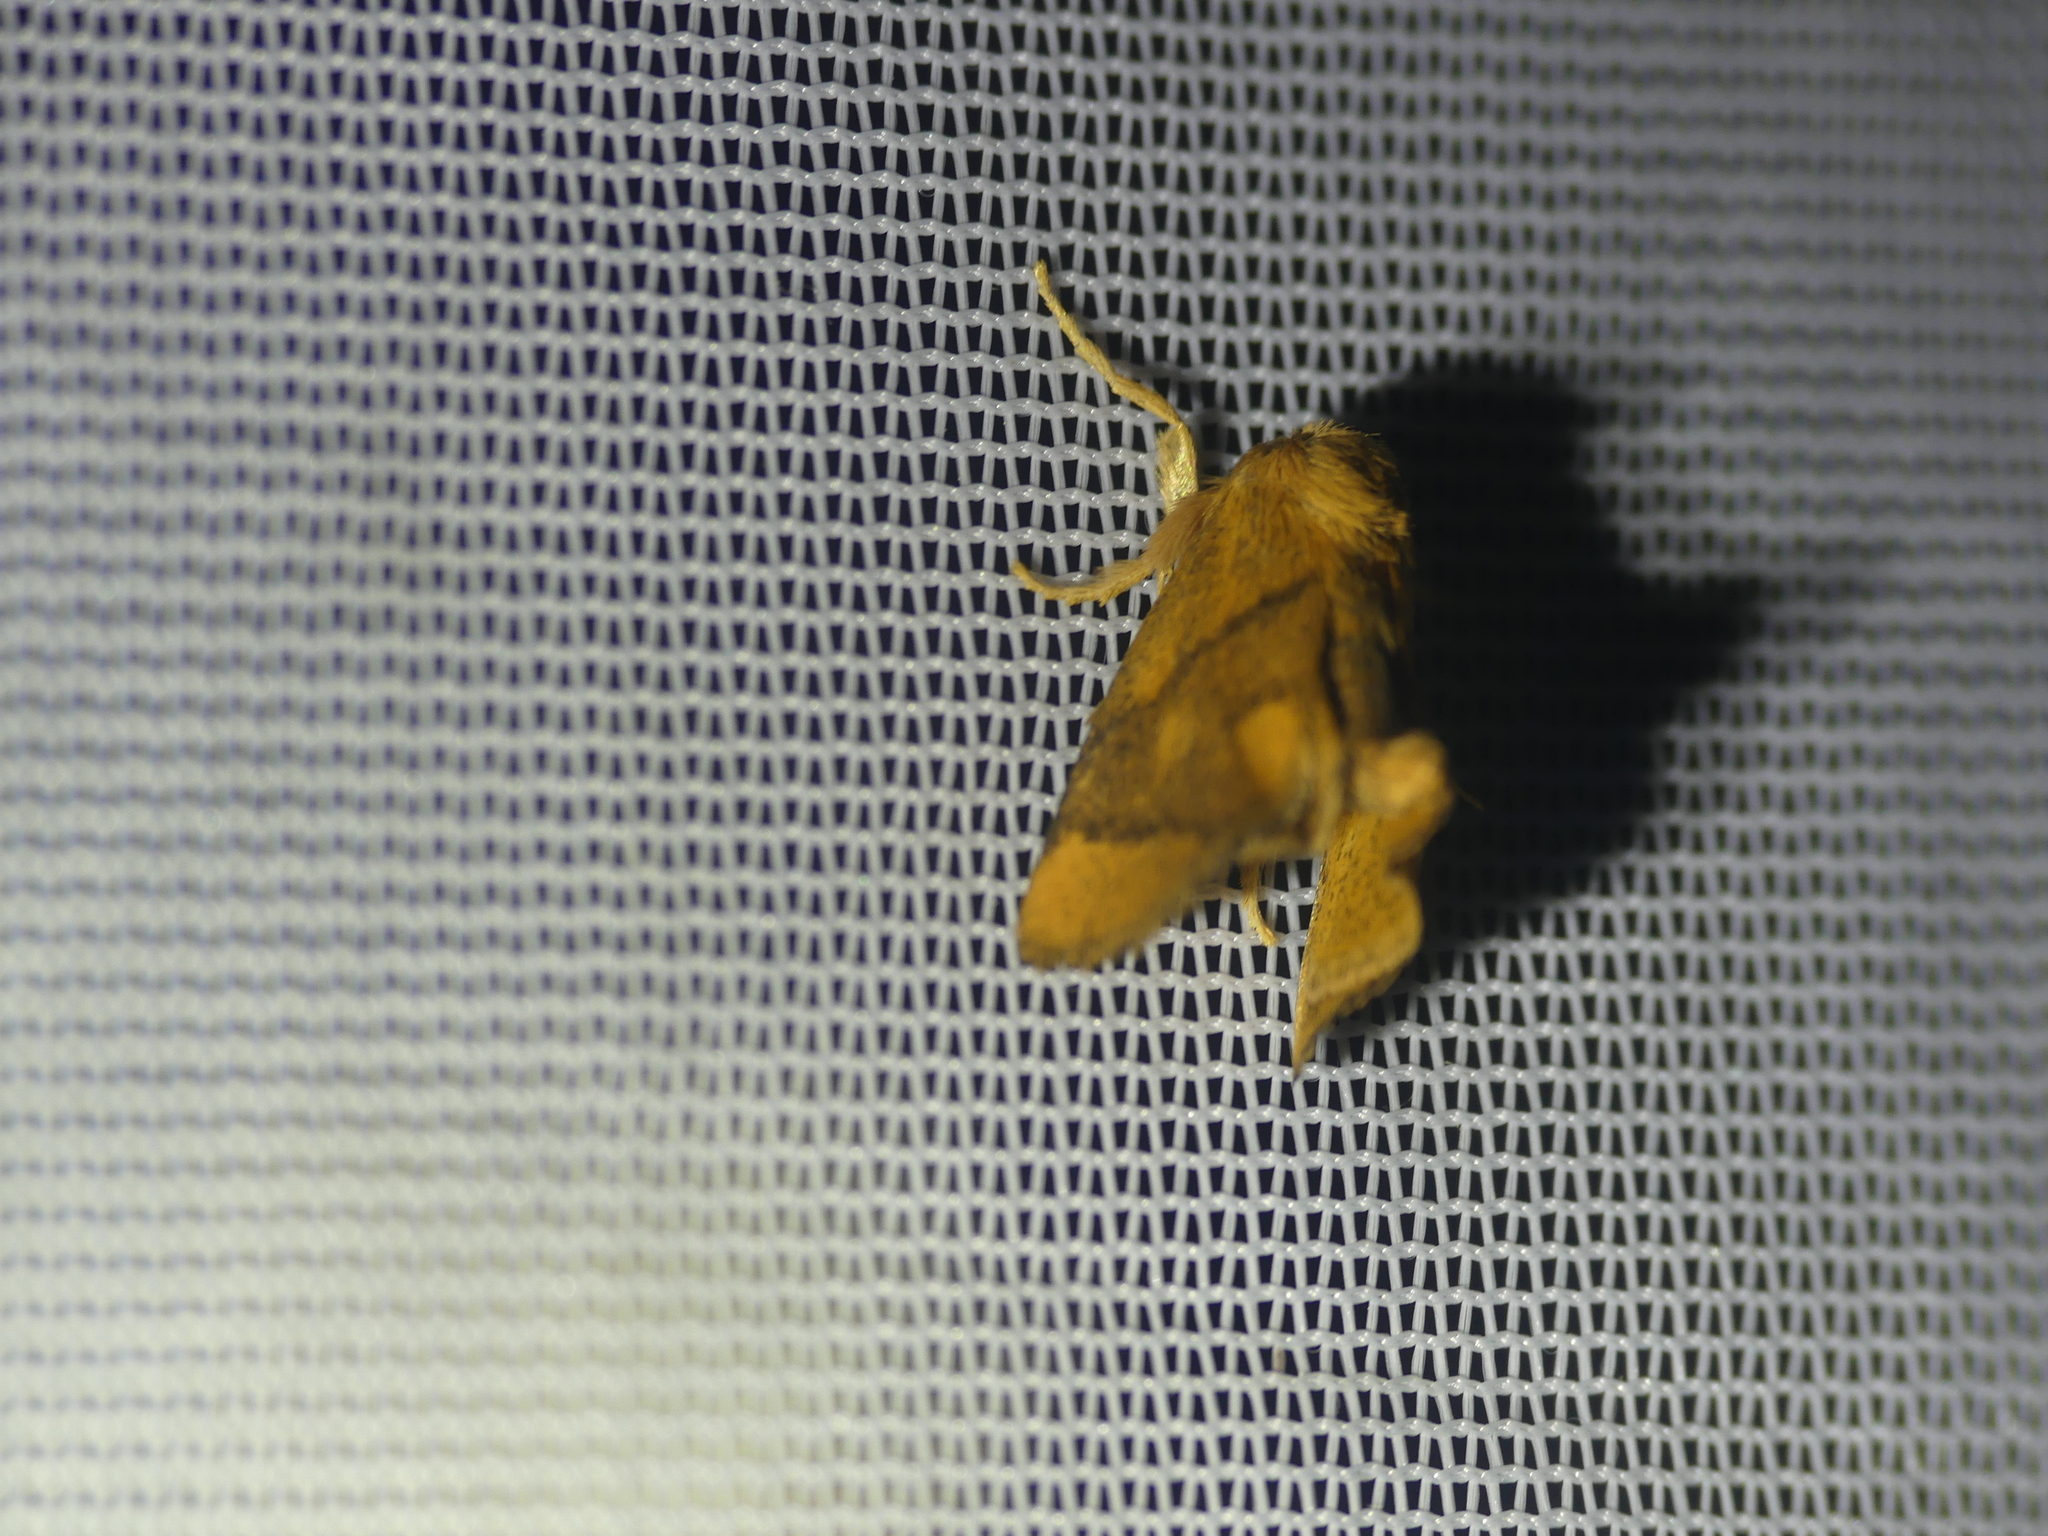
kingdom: Animalia
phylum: Arthropoda
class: Insecta
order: Lepidoptera
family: Limacodidae
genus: Apoda
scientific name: Apoda limacodes
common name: Festoon
